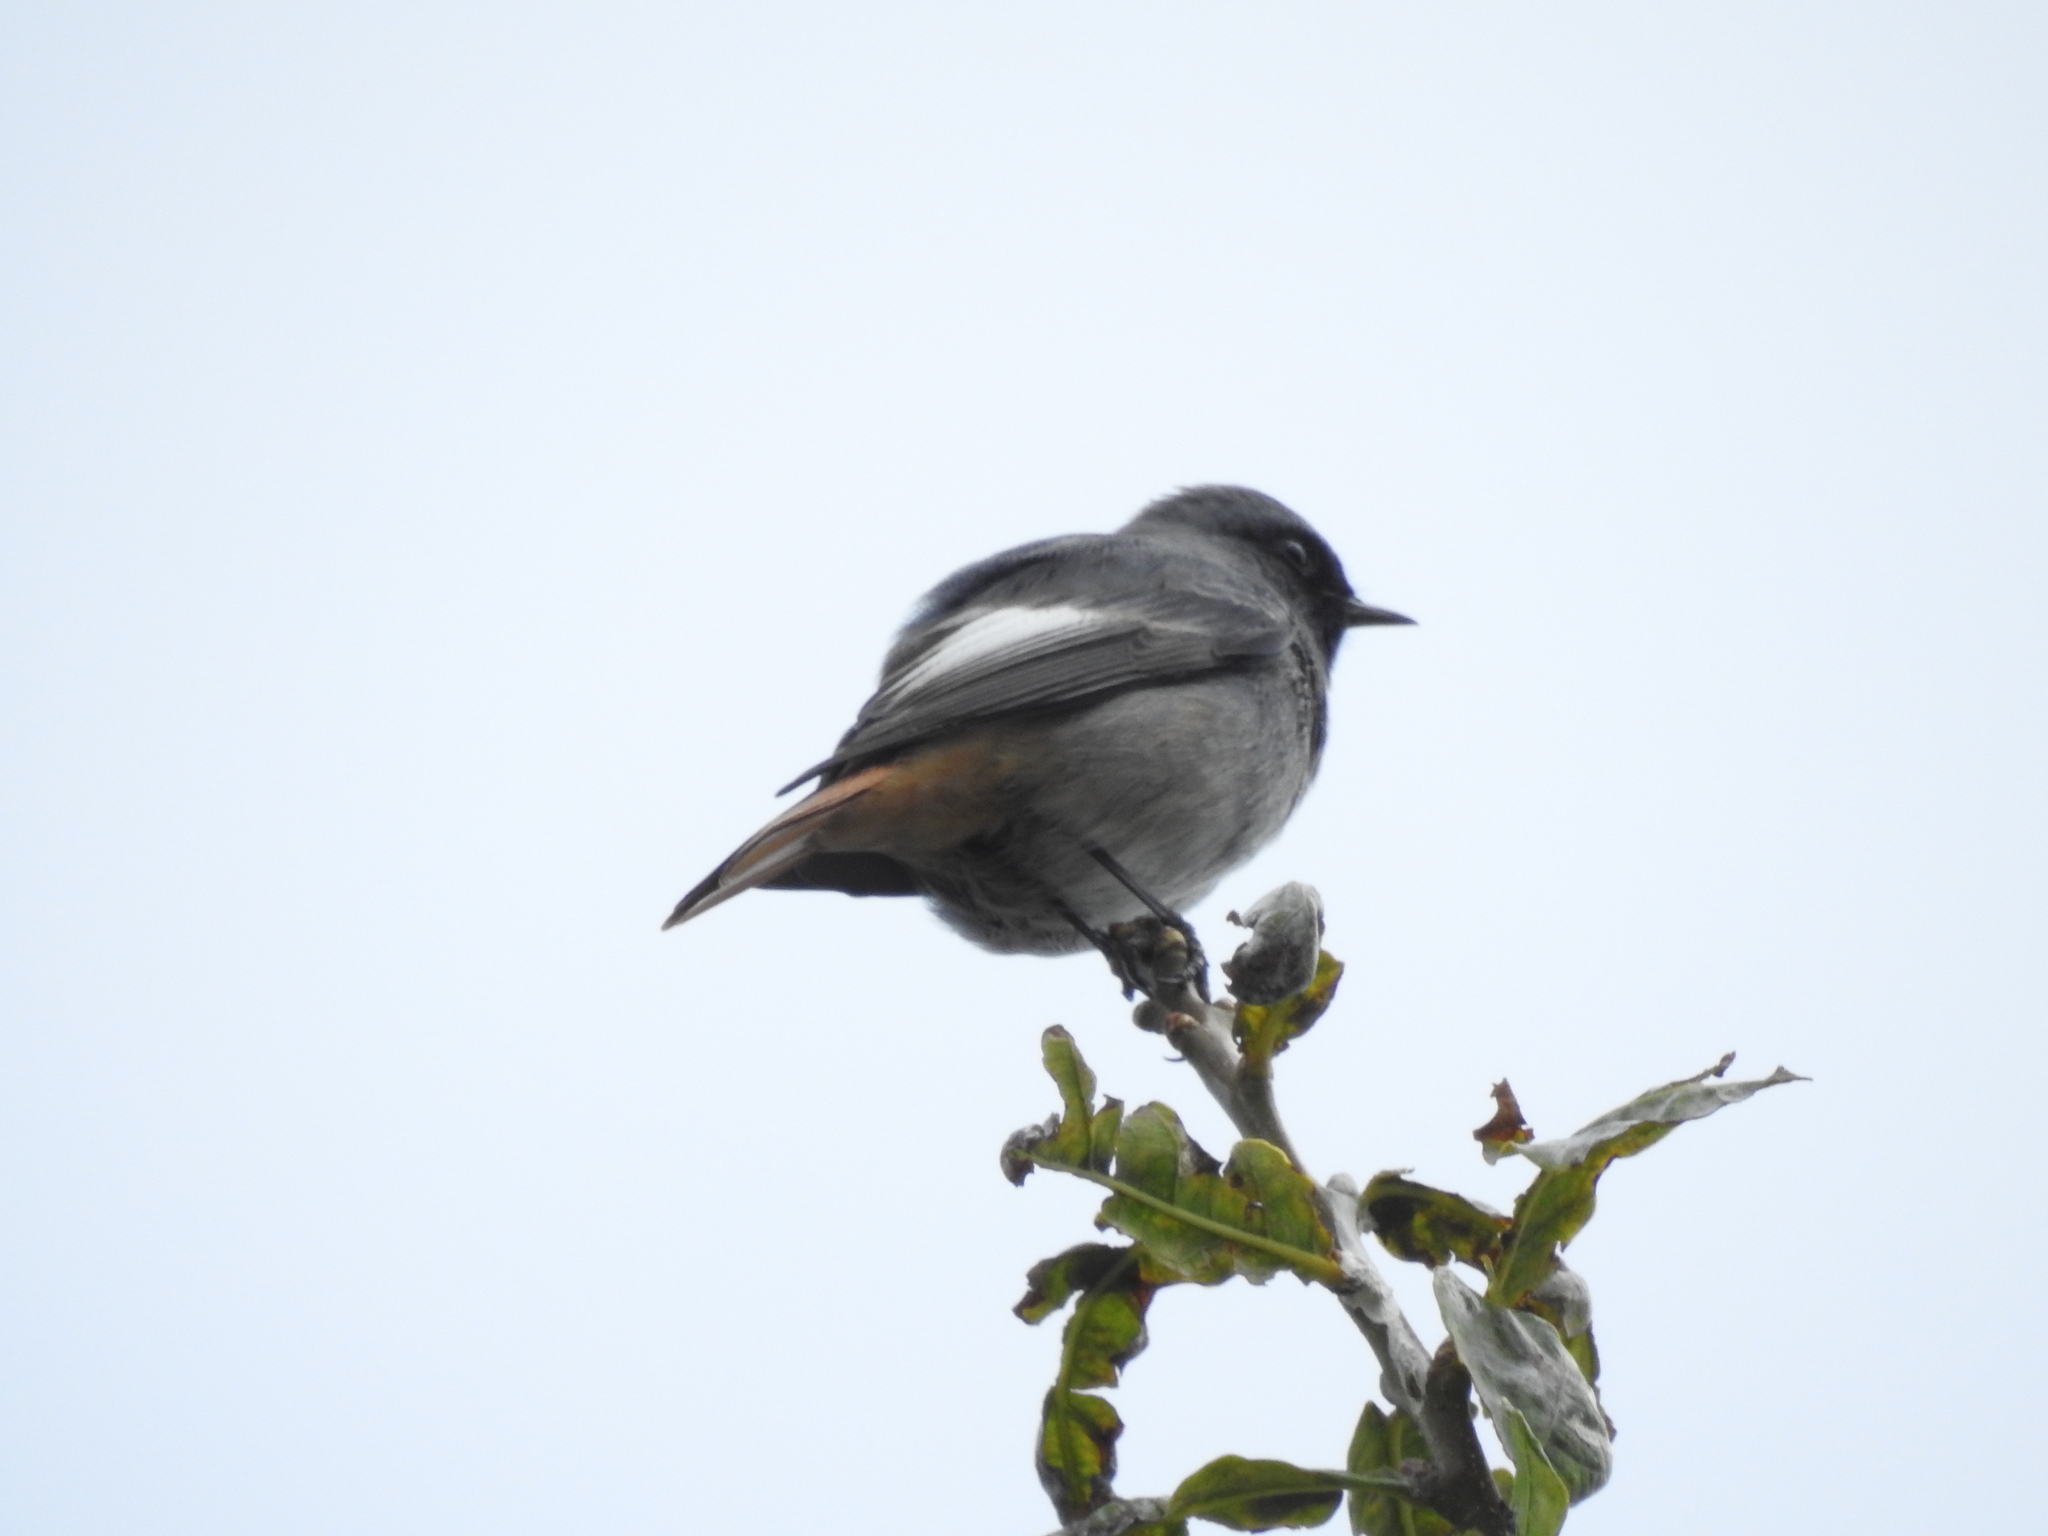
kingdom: Animalia
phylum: Chordata
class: Aves
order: Passeriformes
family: Muscicapidae
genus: Phoenicurus
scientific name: Phoenicurus ochruros
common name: Black redstart
